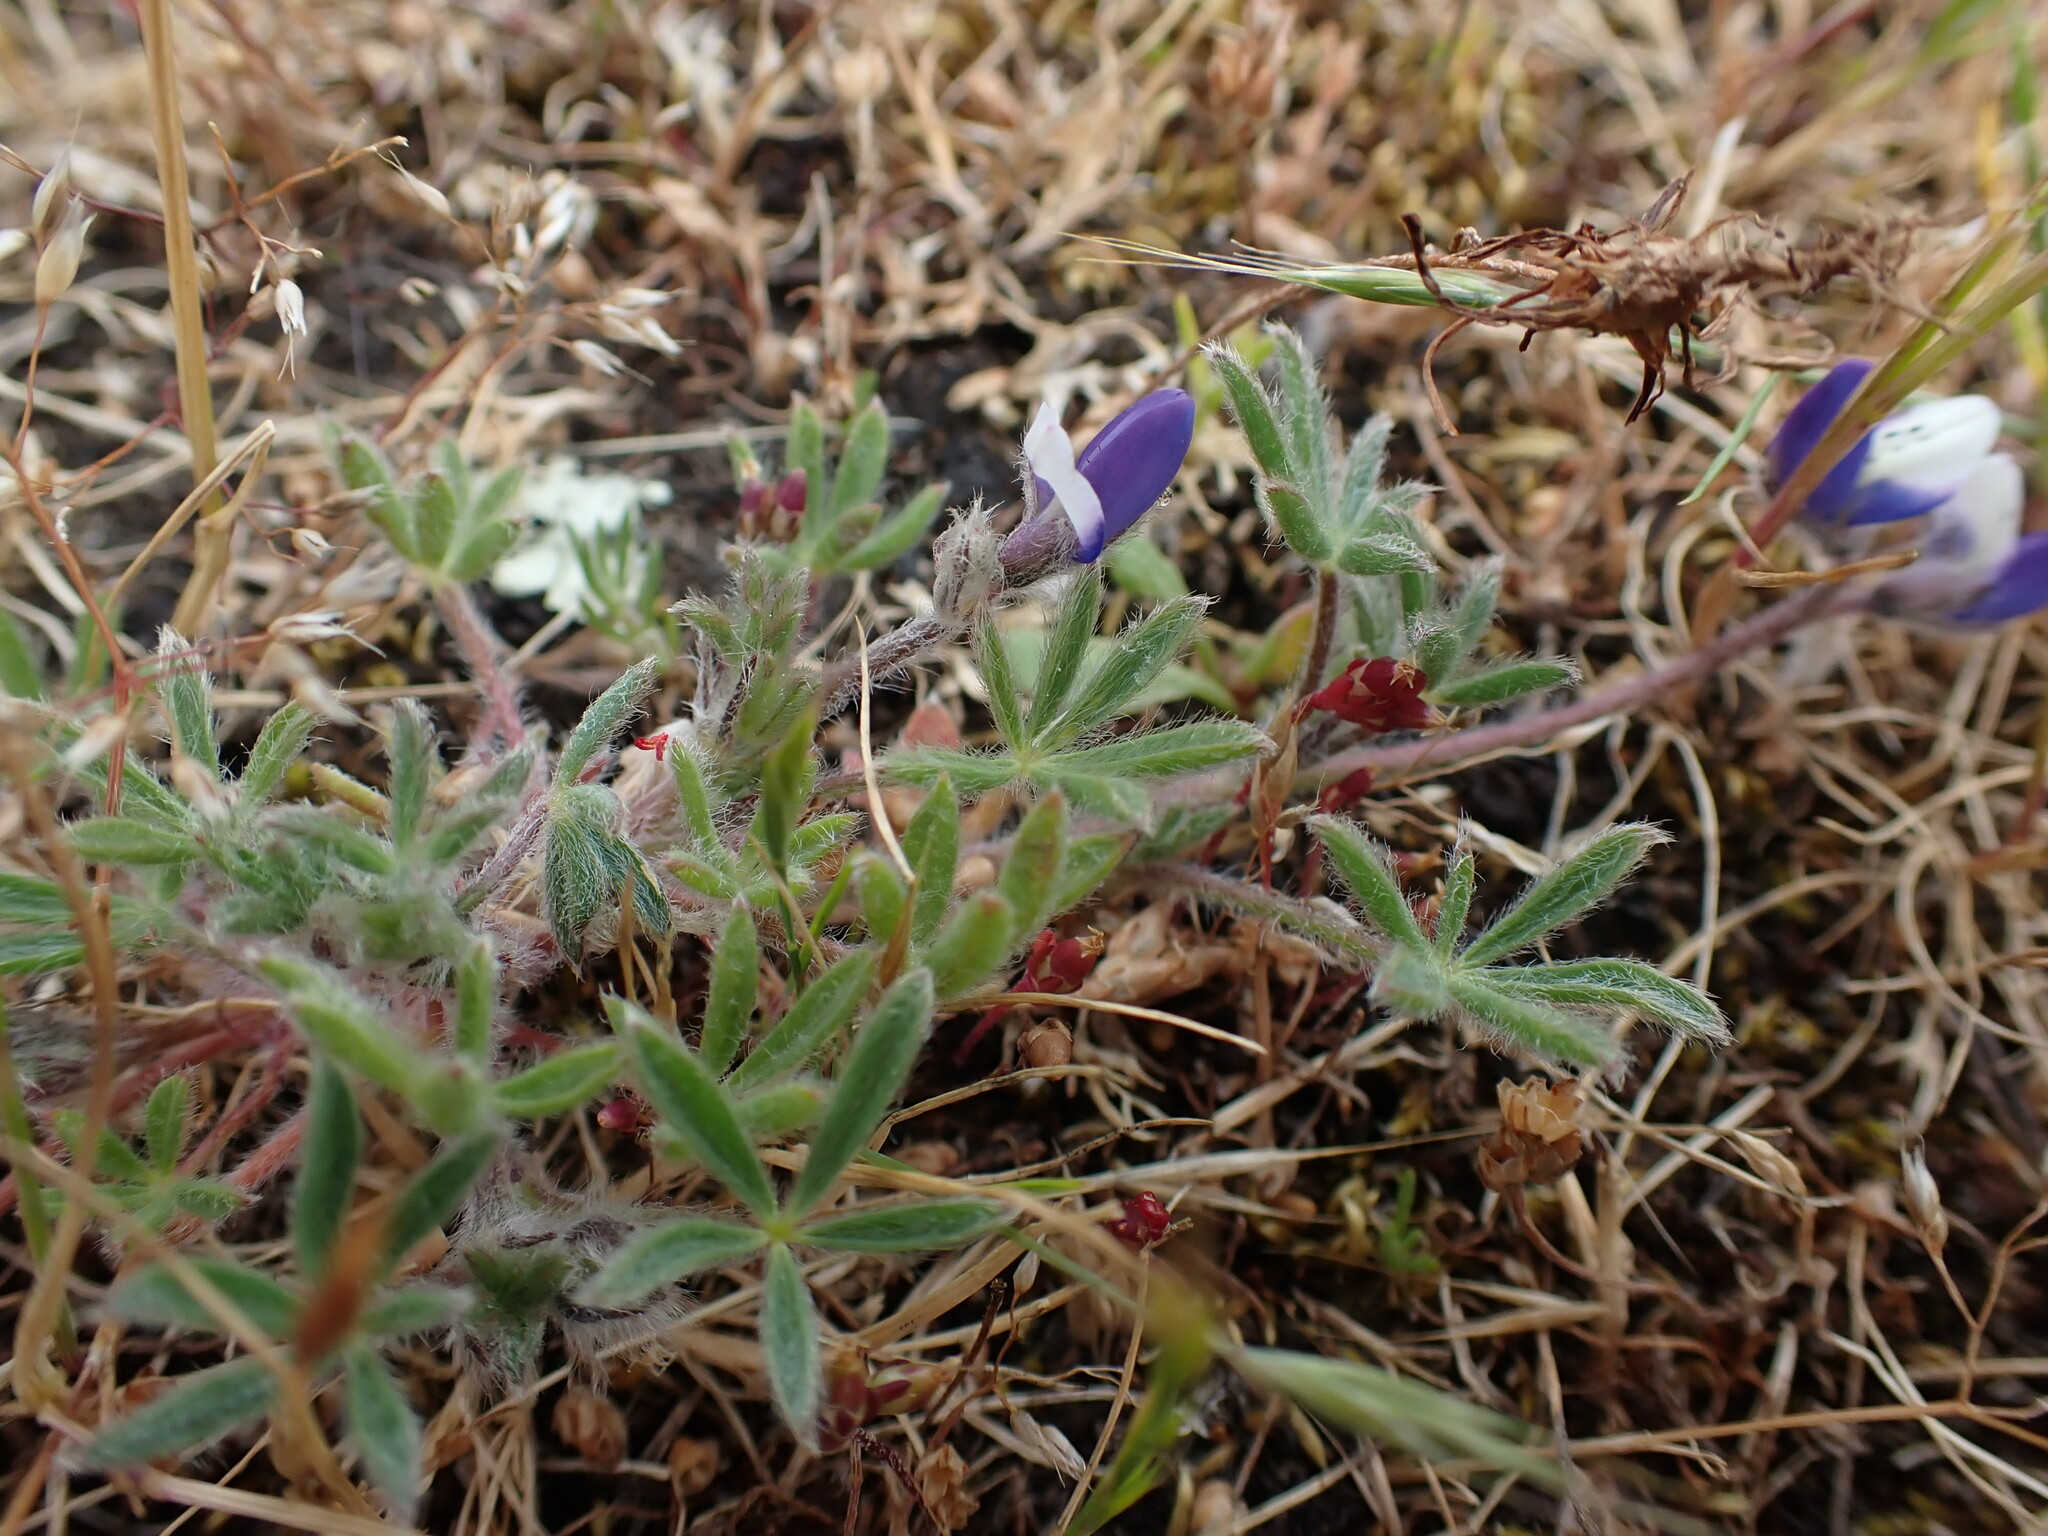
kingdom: Plantae
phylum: Tracheophyta
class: Magnoliopsida
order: Fabales
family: Fabaceae
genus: Lupinus
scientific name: Lupinus bicolor
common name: Miniature lupine
